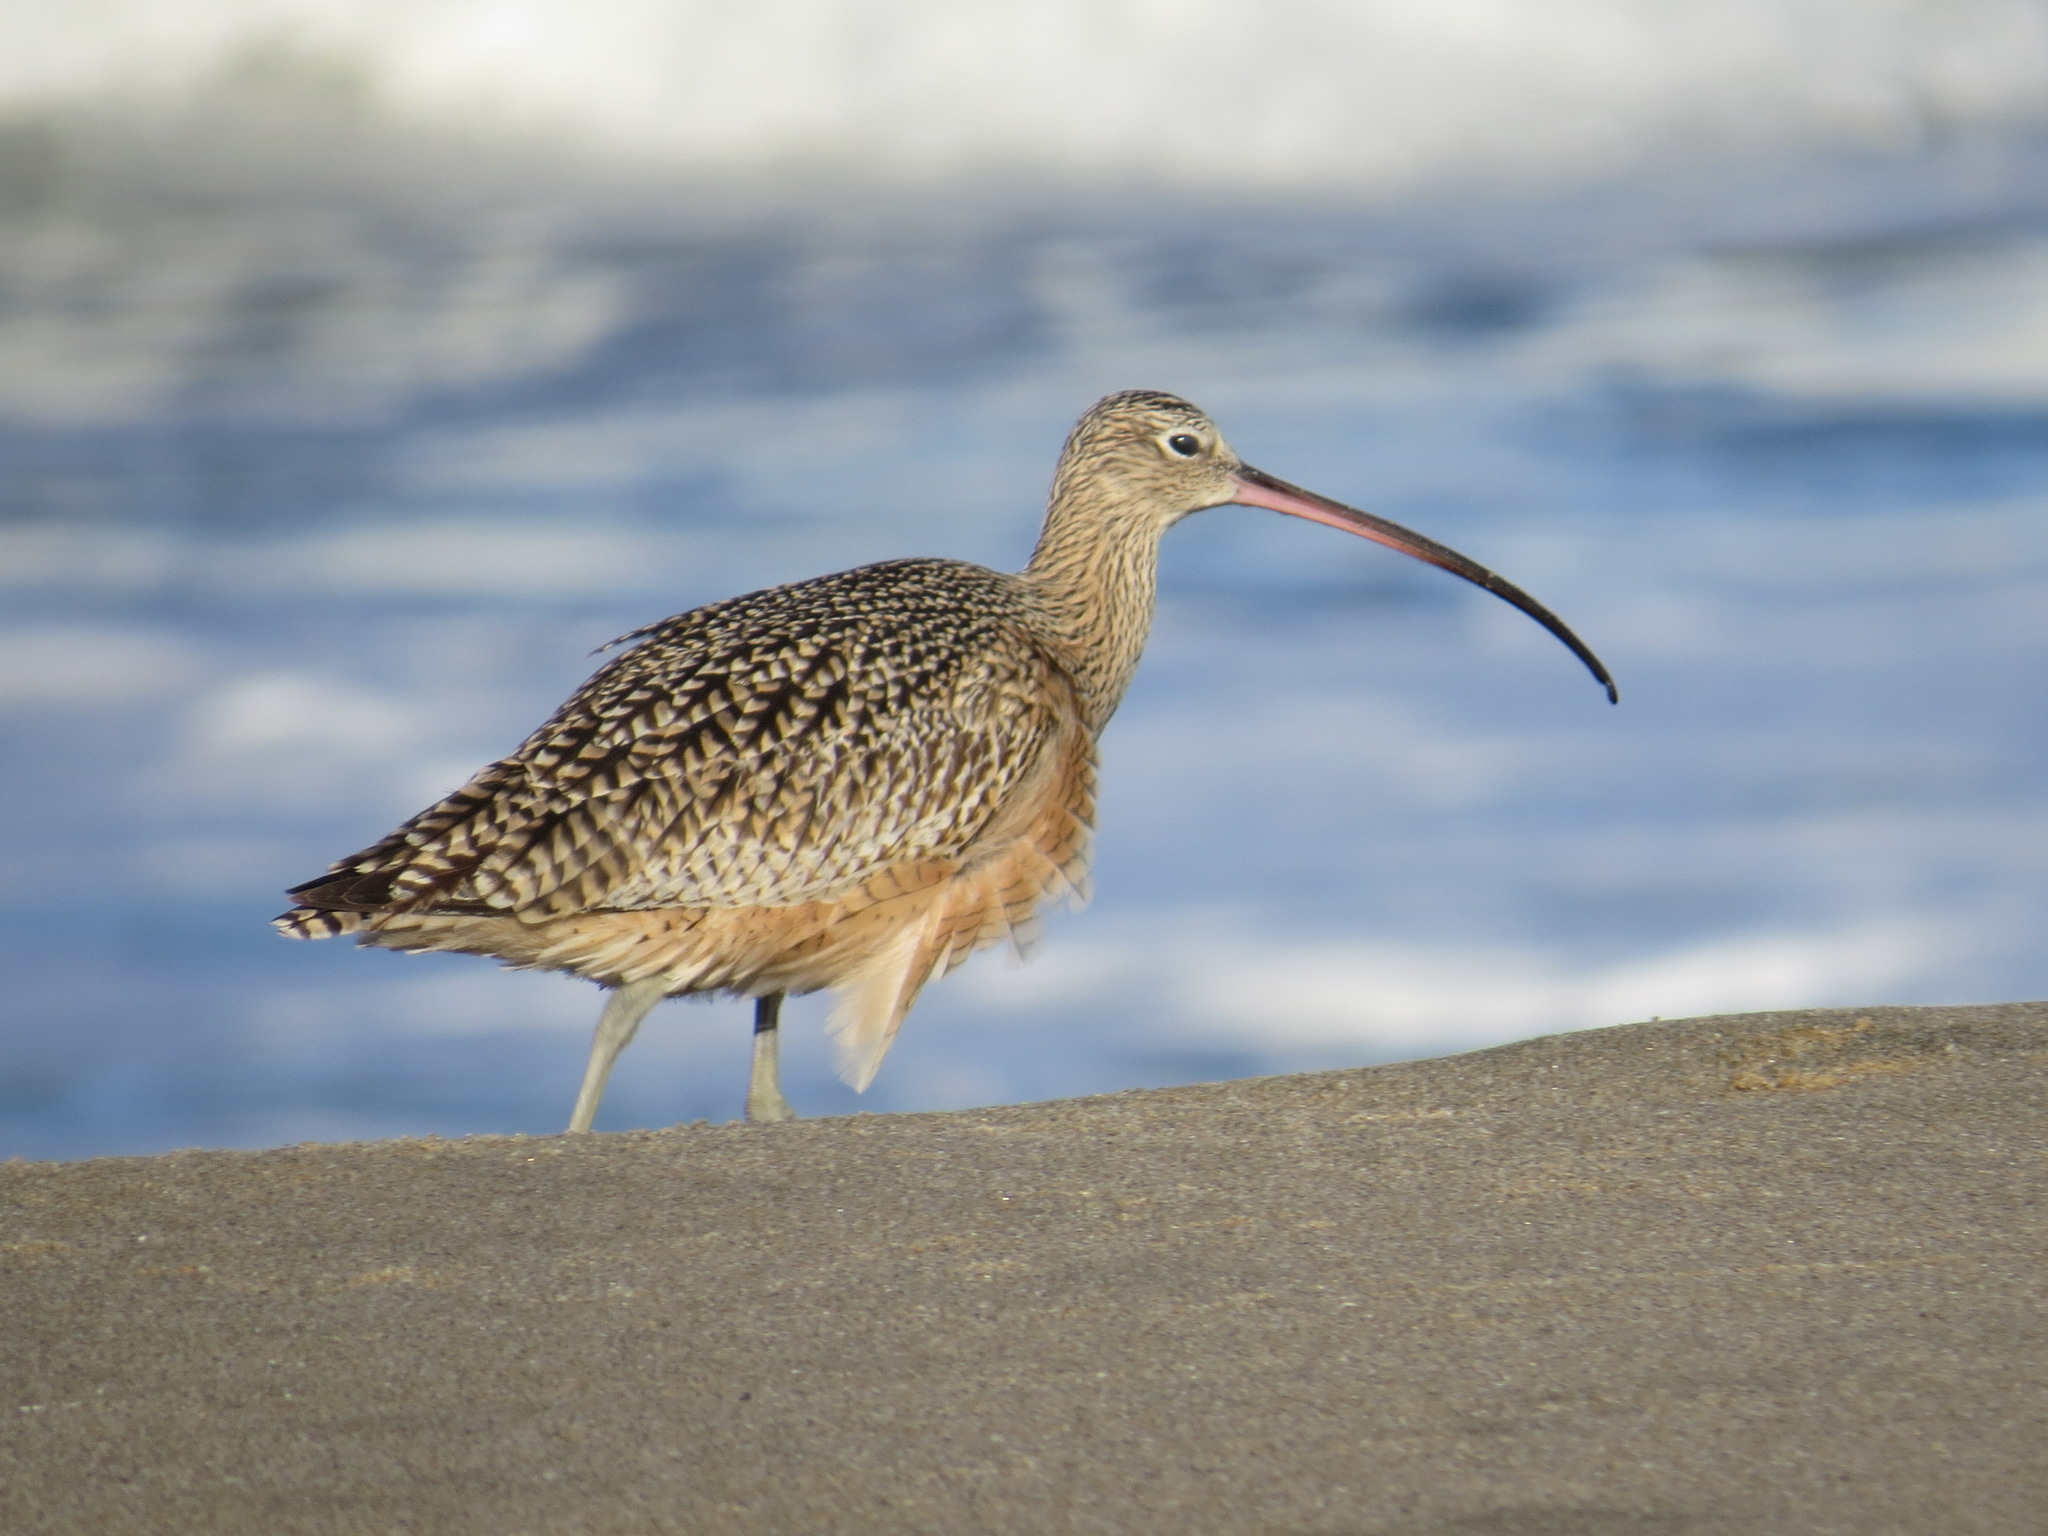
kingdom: Animalia
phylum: Chordata
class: Aves
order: Charadriiformes
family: Scolopacidae
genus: Numenius
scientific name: Numenius americanus
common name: Long-billed curlew
